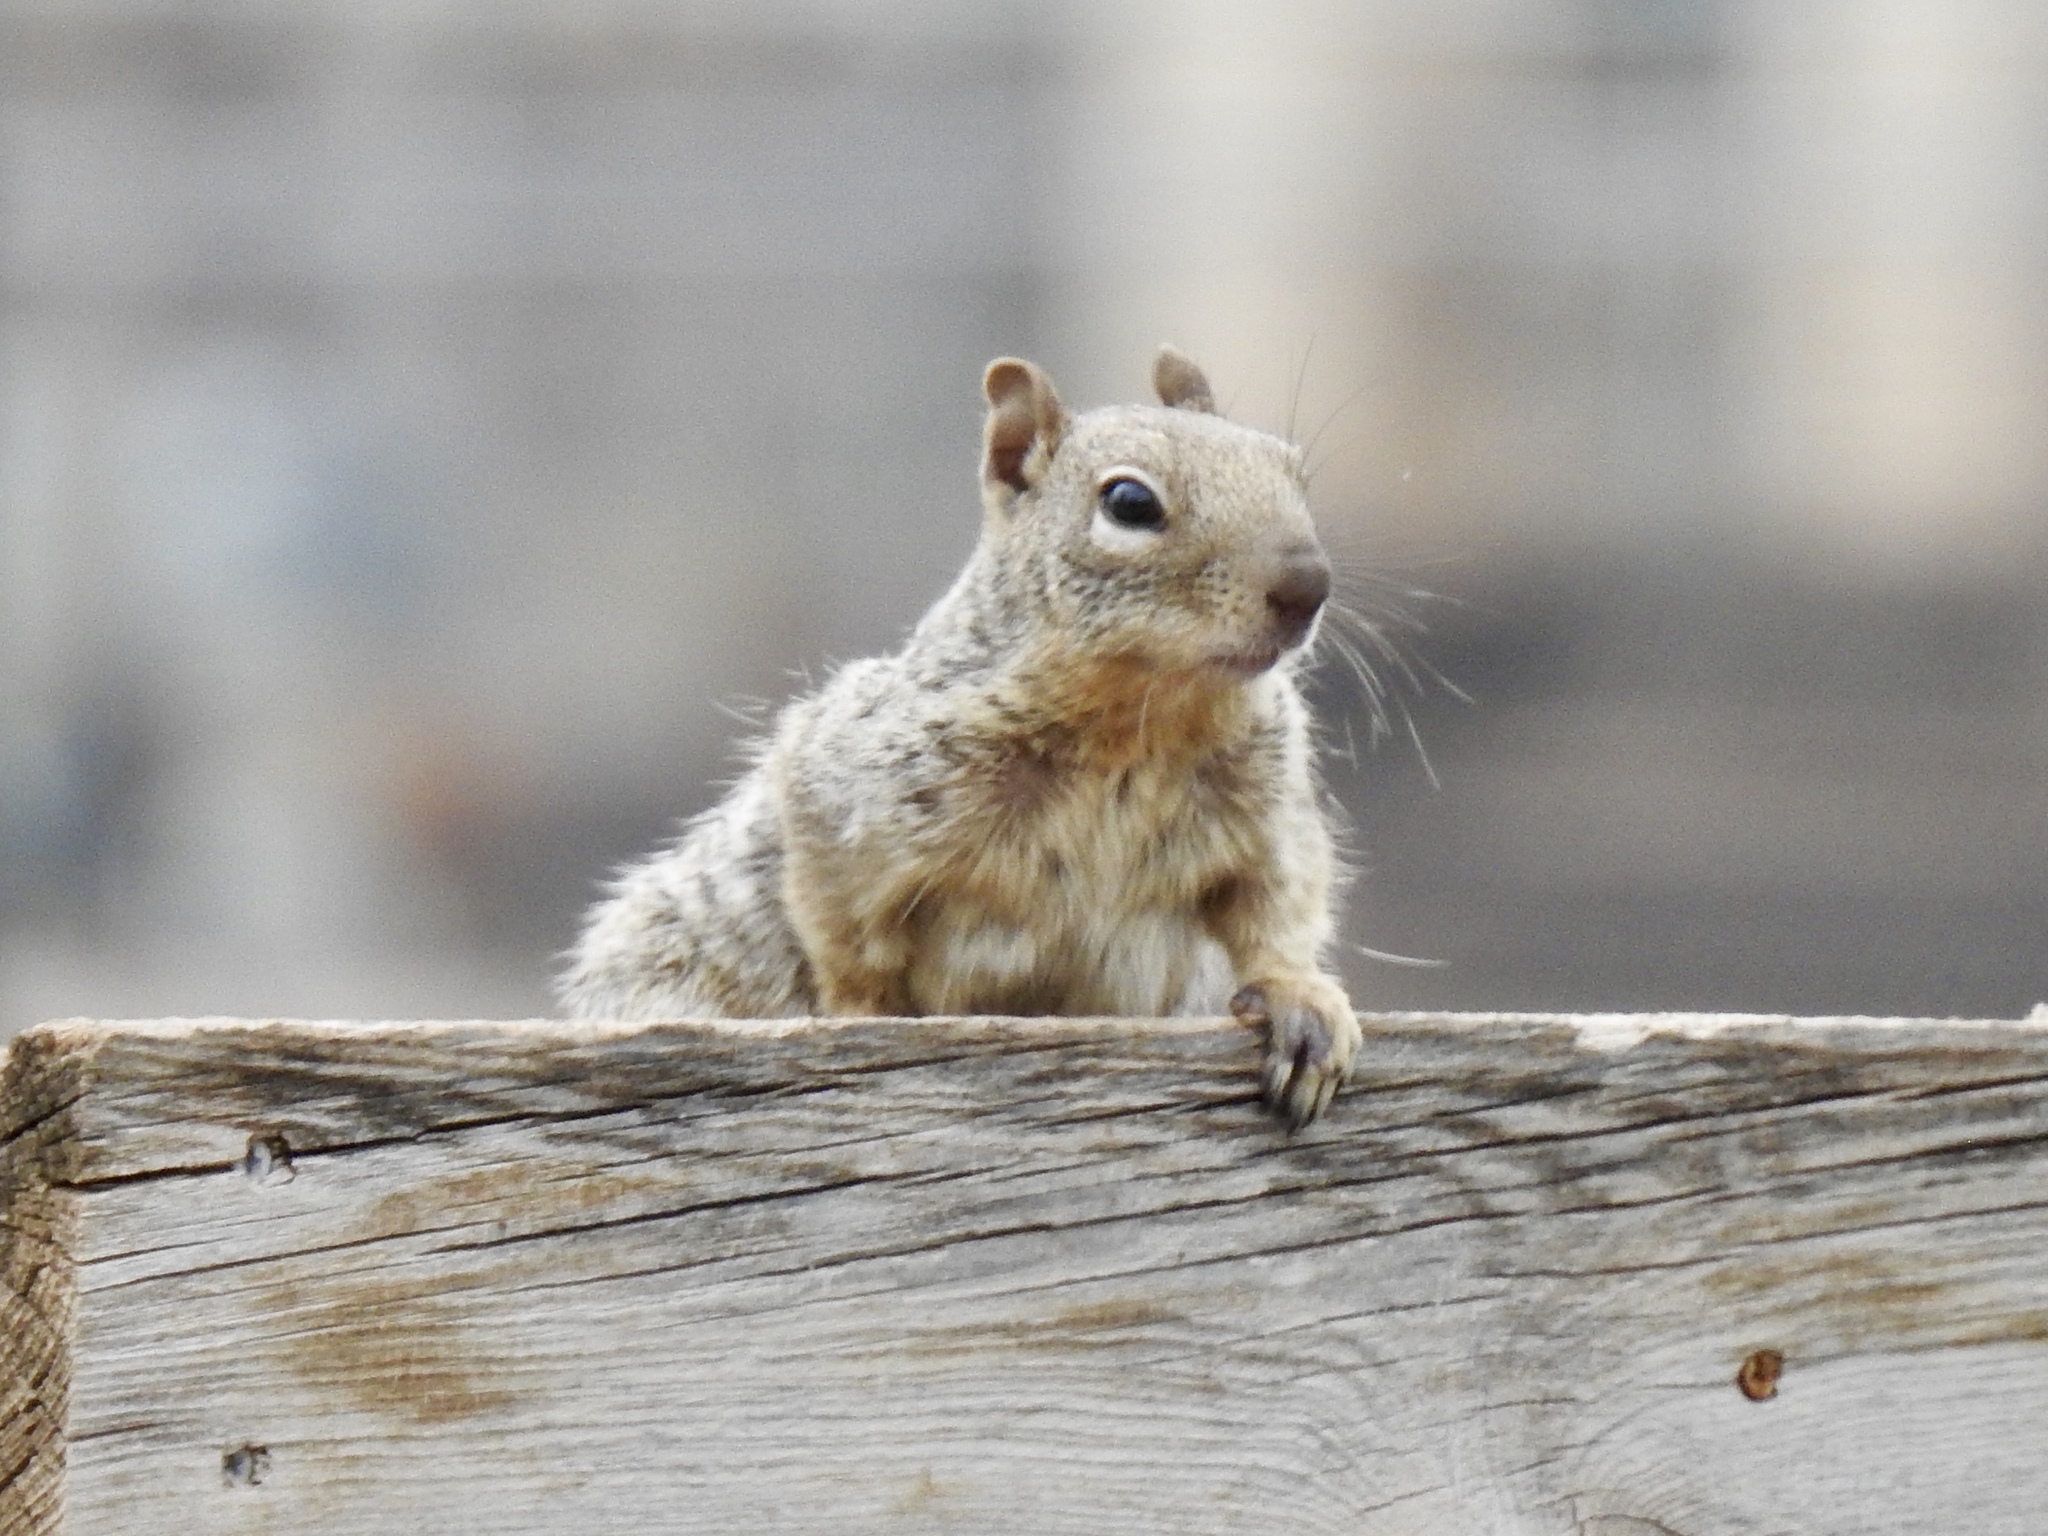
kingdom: Animalia
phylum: Chordata
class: Mammalia
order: Rodentia
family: Sciuridae
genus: Otospermophilus
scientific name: Otospermophilus variegatus
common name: Rock squirrel
